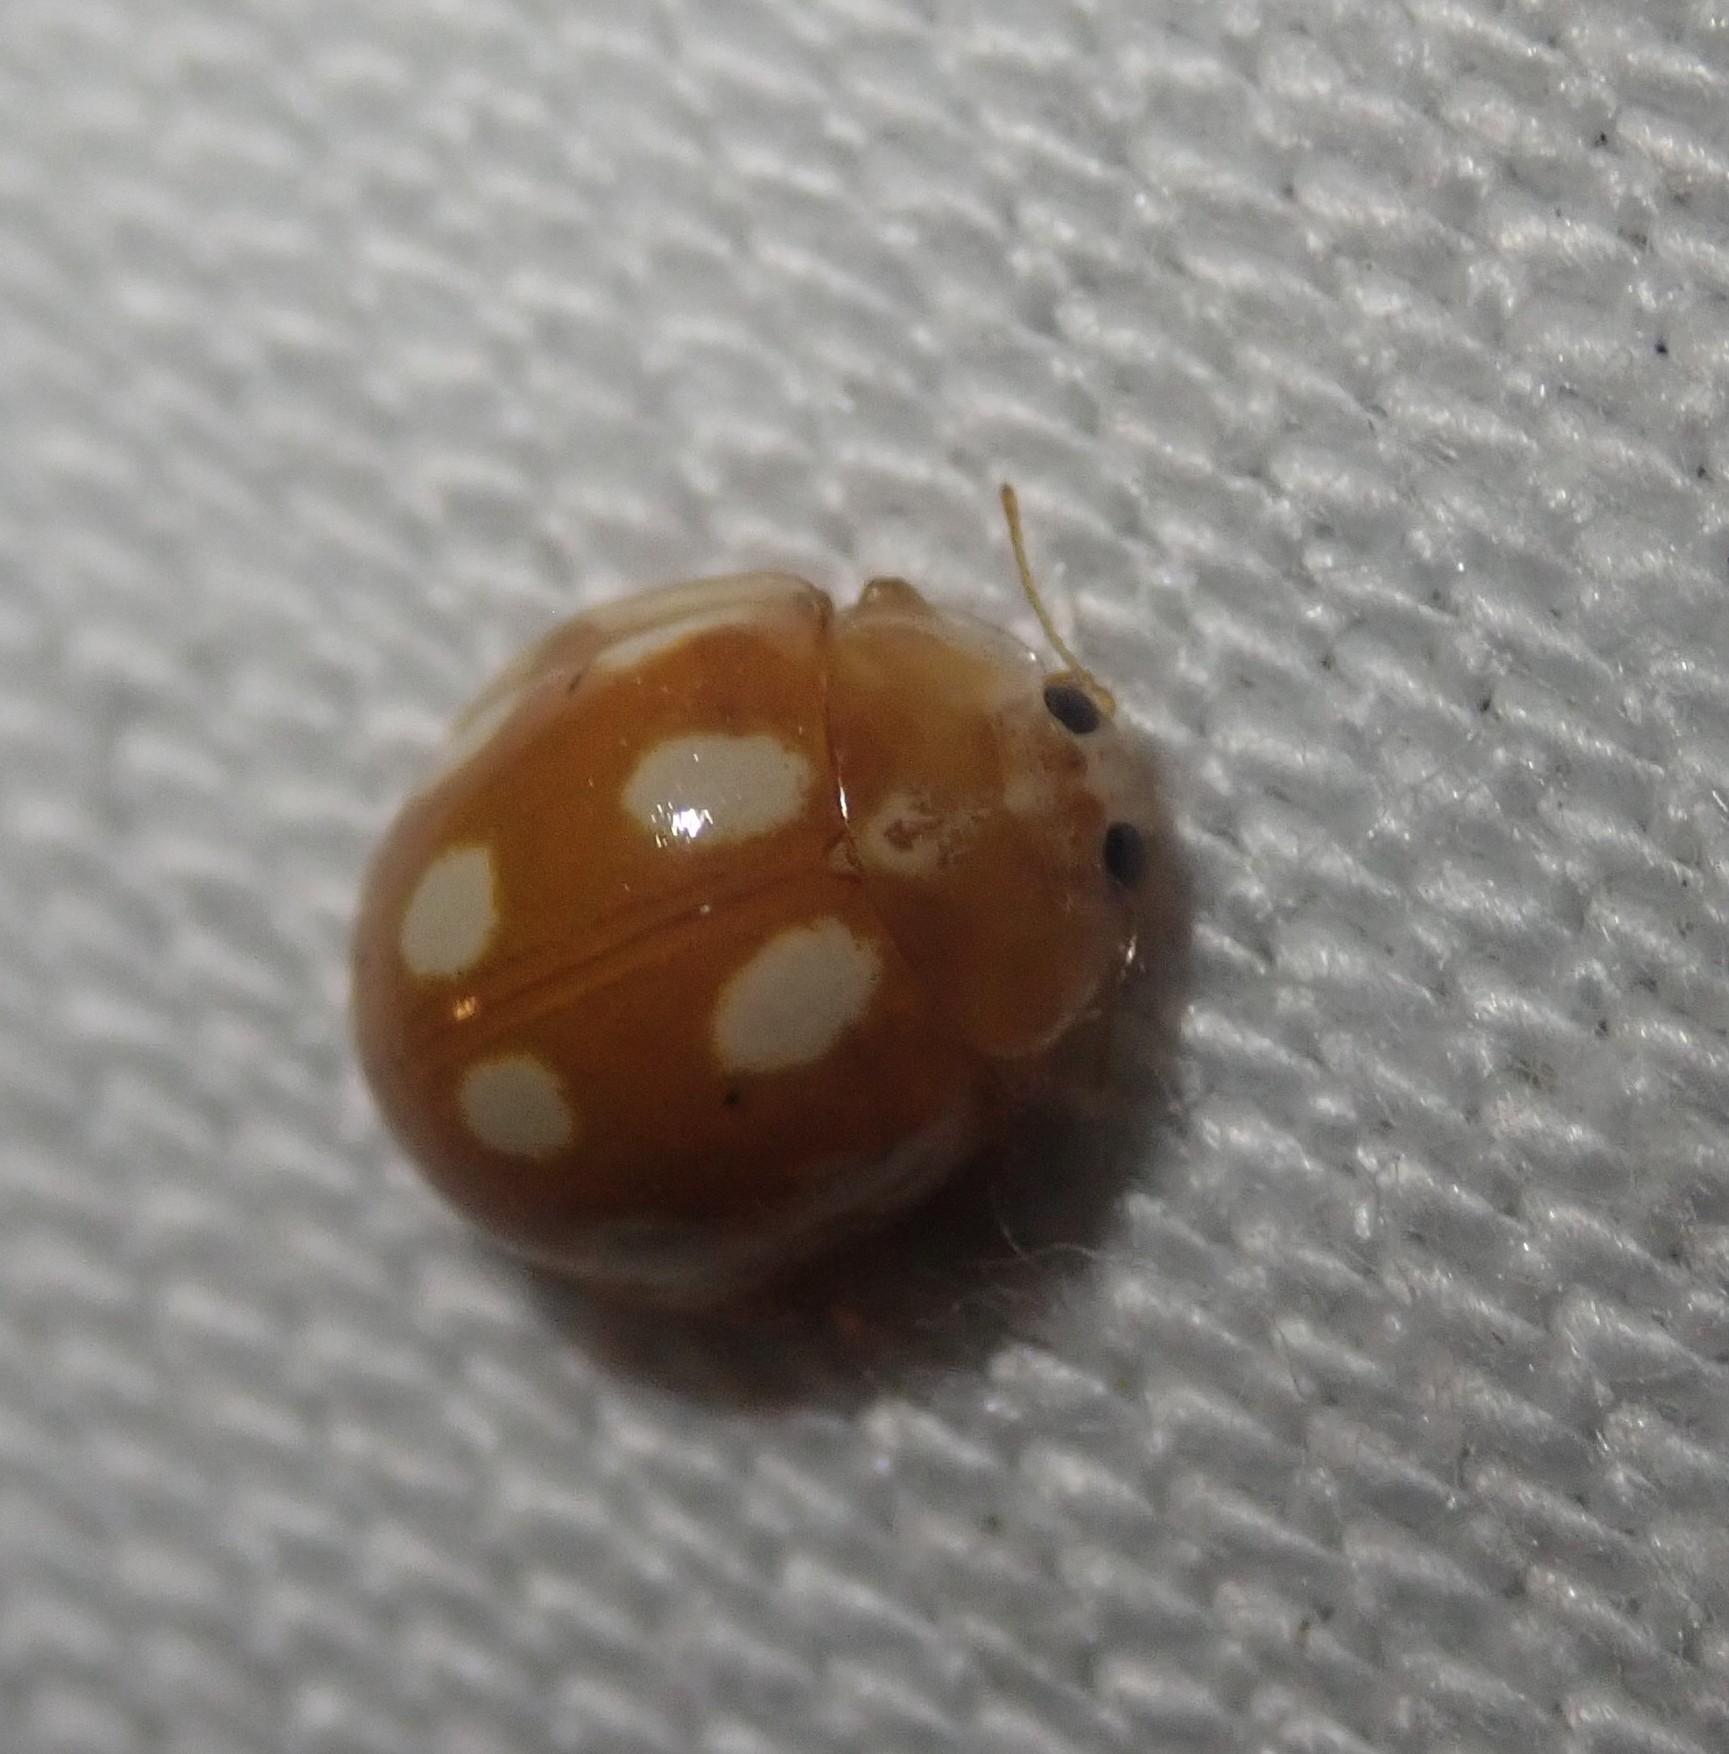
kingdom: Animalia
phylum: Arthropoda
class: Insecta
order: Coleoptera
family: Coccinellidae
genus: Calvia
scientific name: Calvia decemguttata
